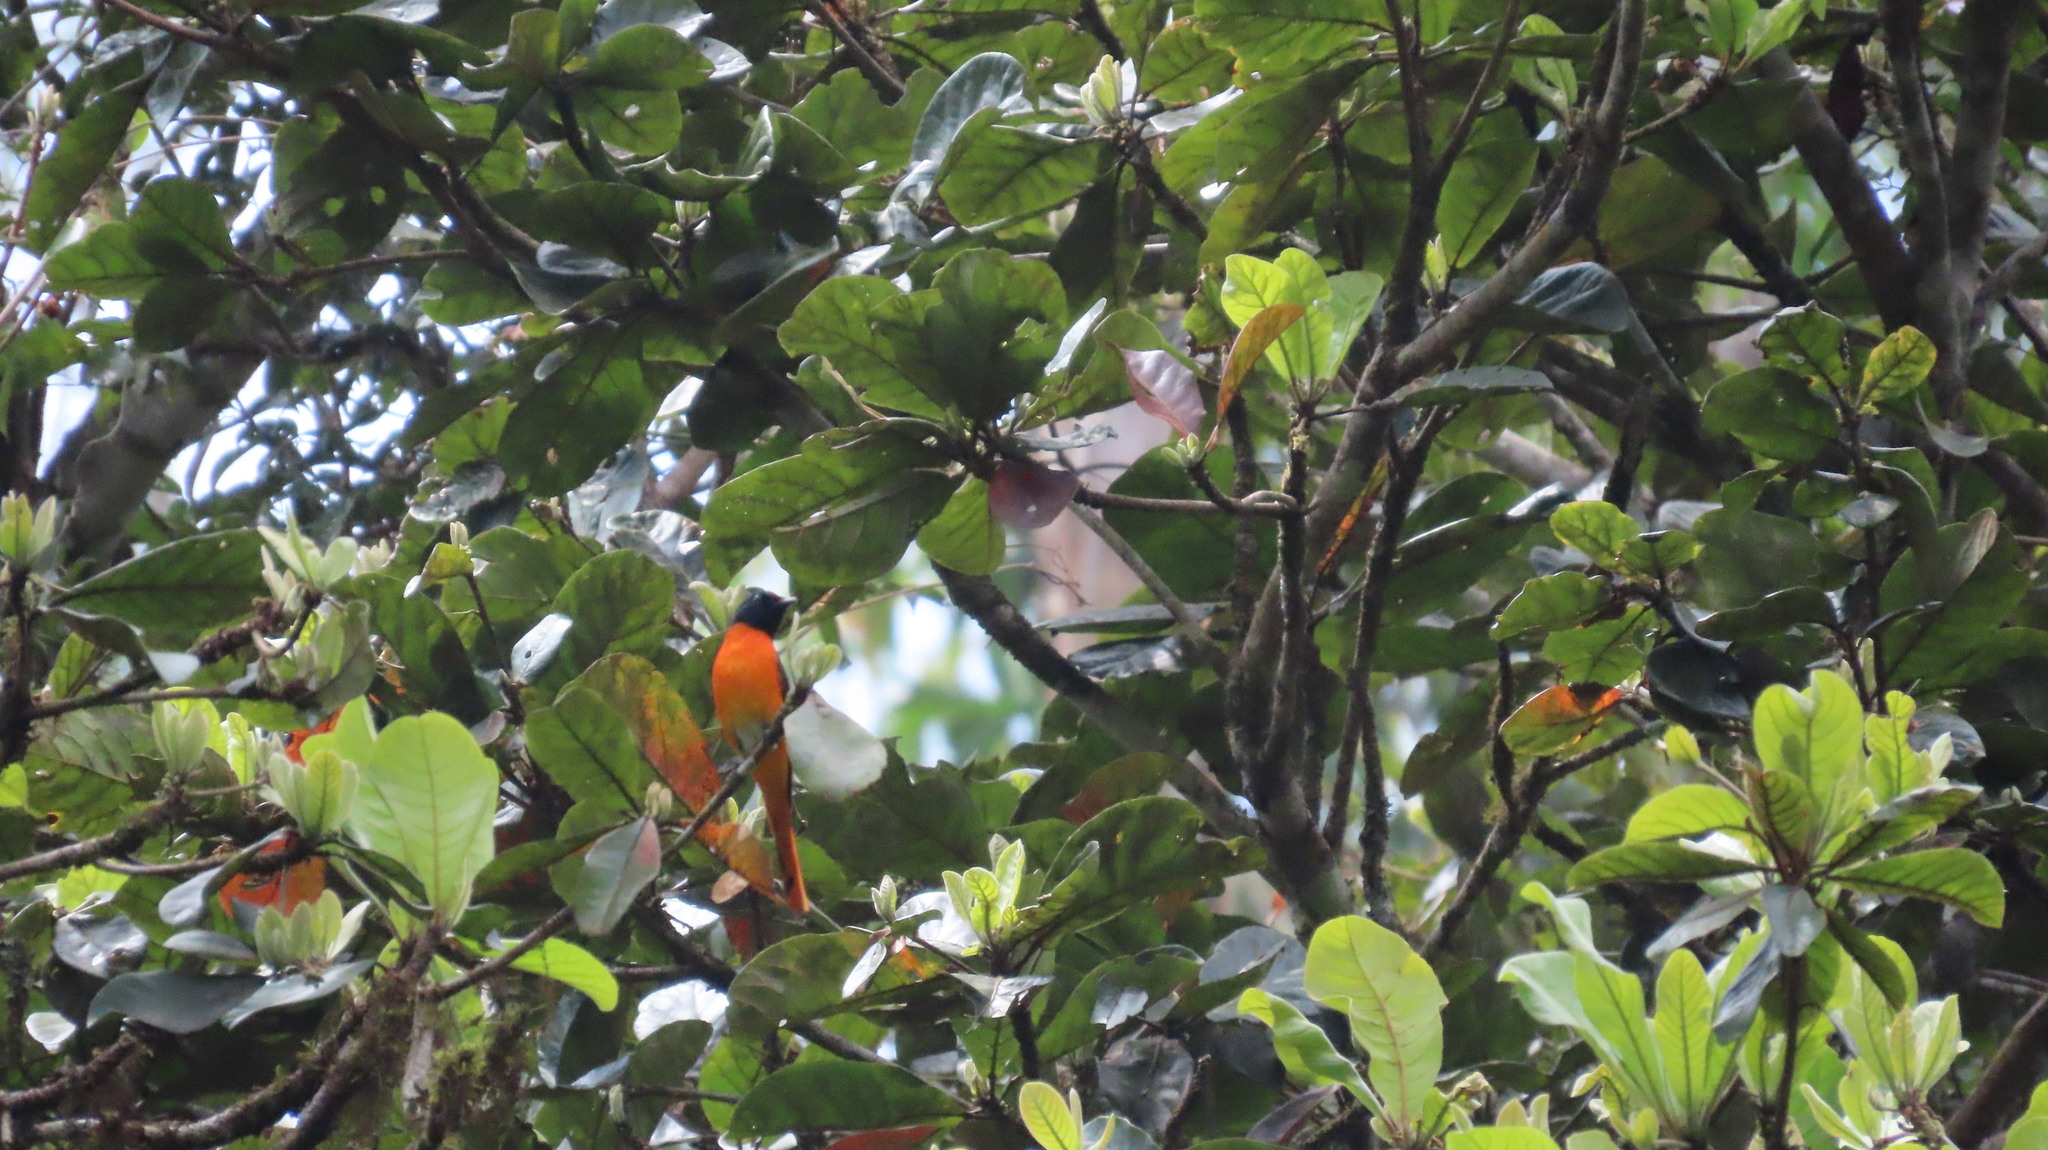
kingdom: Animalia
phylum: Chordata
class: Aves
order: Passeriformes
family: Campephagidae
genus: Pericrocotus
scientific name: Pericrocotus flammeus
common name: Orange minivet
